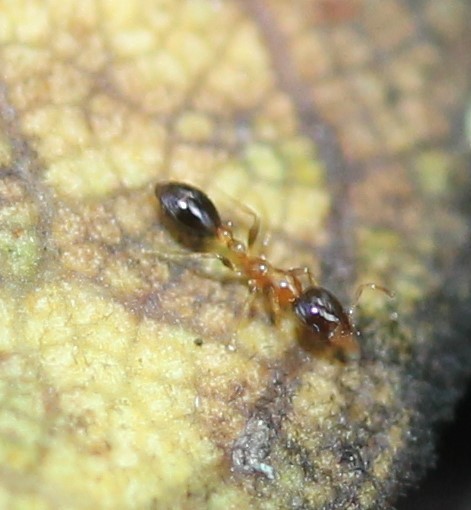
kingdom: Animalia
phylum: Arthropoda
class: Insecta
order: Hymenoptera
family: Formicidae
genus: Monomorium
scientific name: Monomorium floricola
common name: Bicolored trailing ant
